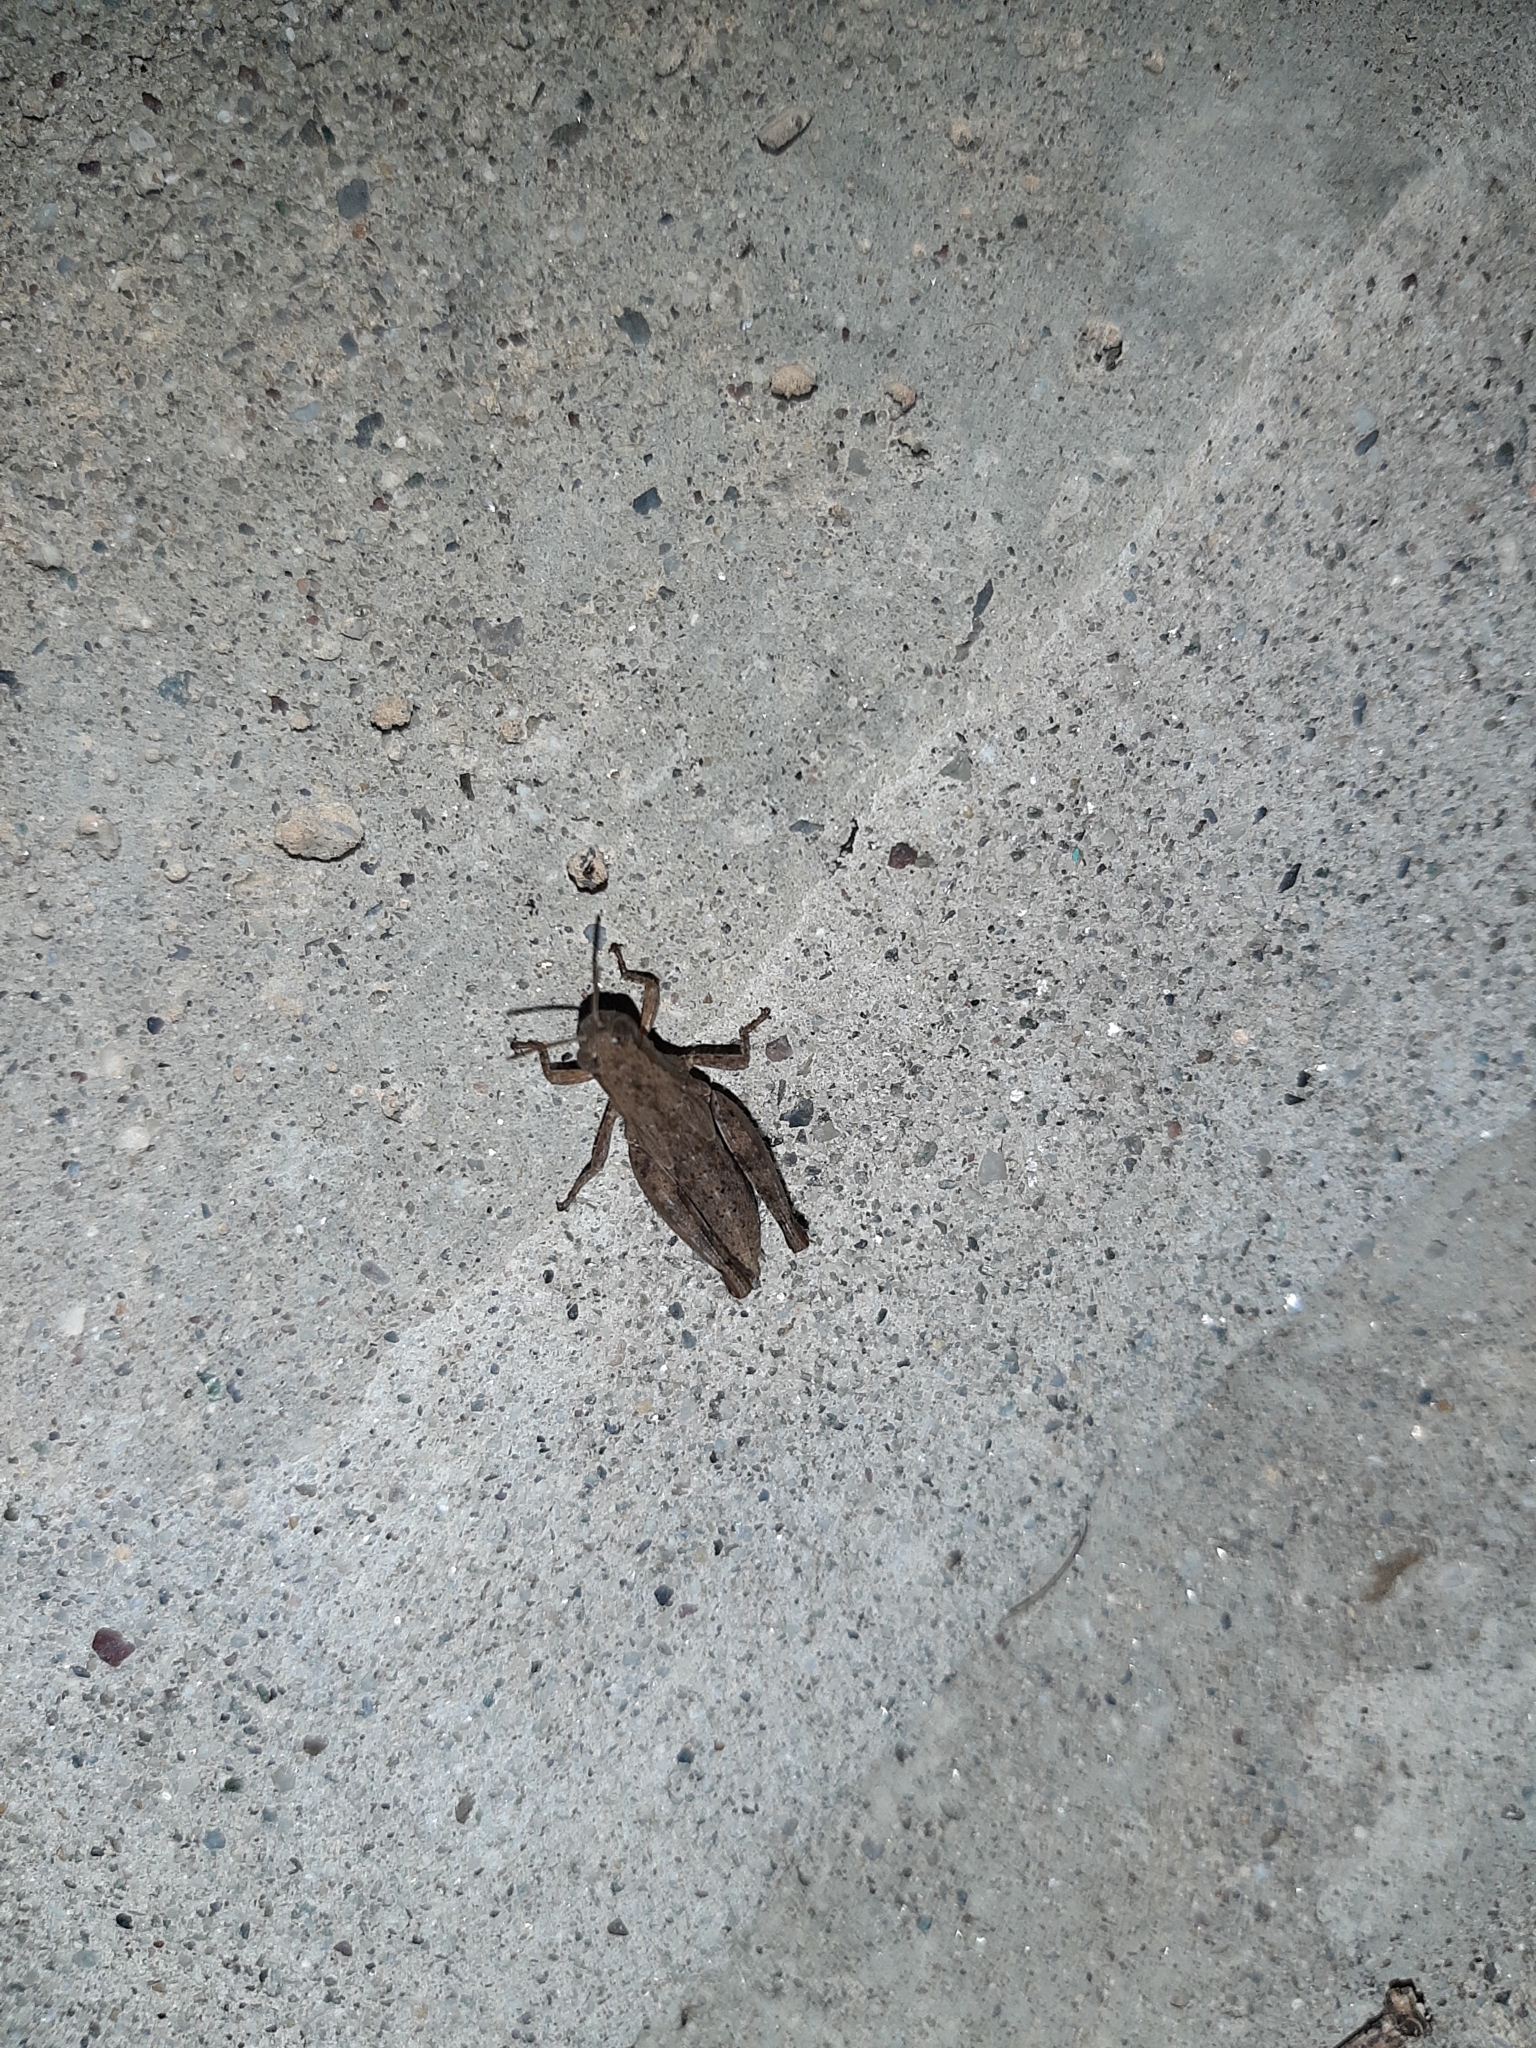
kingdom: Animalia
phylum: Arthropoda
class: Insecta
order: Orthoptera
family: Acrididae
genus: Pezotettix
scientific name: Pezotettix giornae
